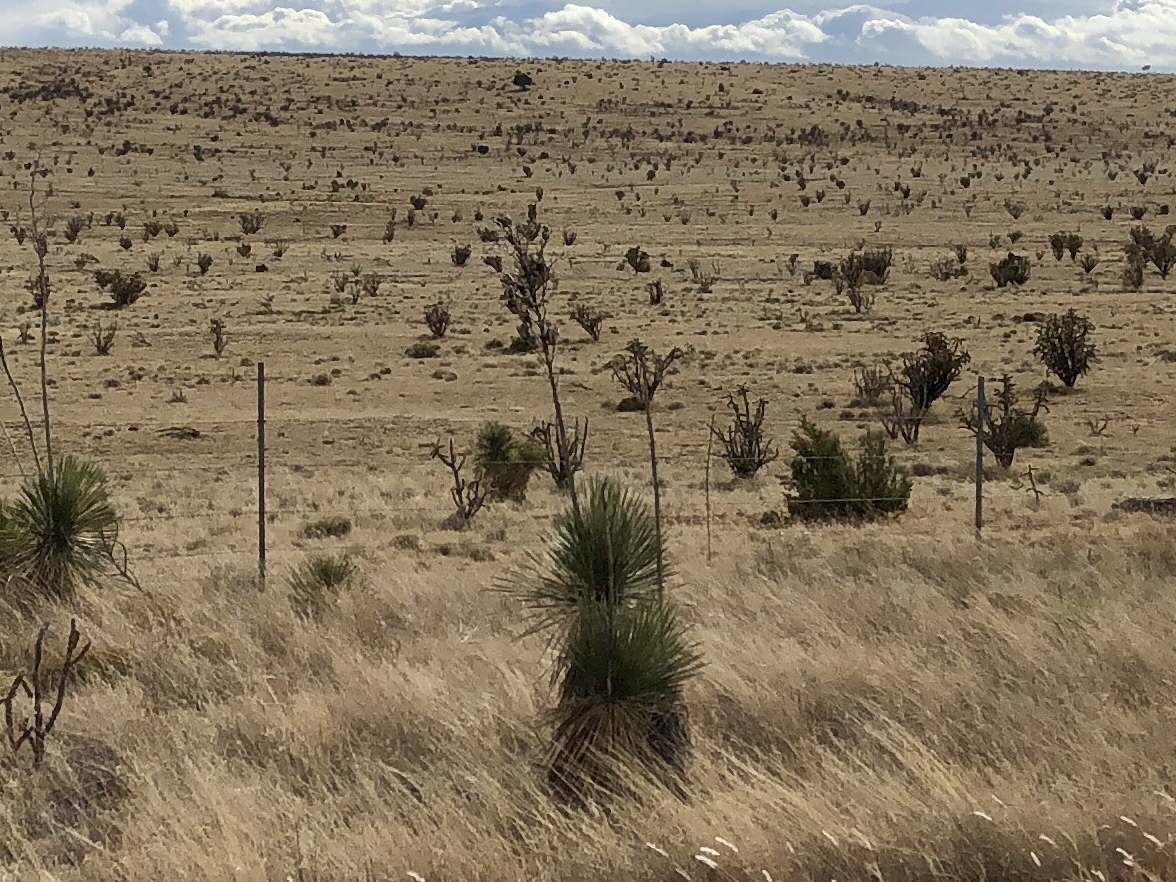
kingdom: Plantae
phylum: Tracheophyta
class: Liliopsida
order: Asparagales
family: Asparagaceae
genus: Yucca
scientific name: Yucca elata
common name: Palmella
